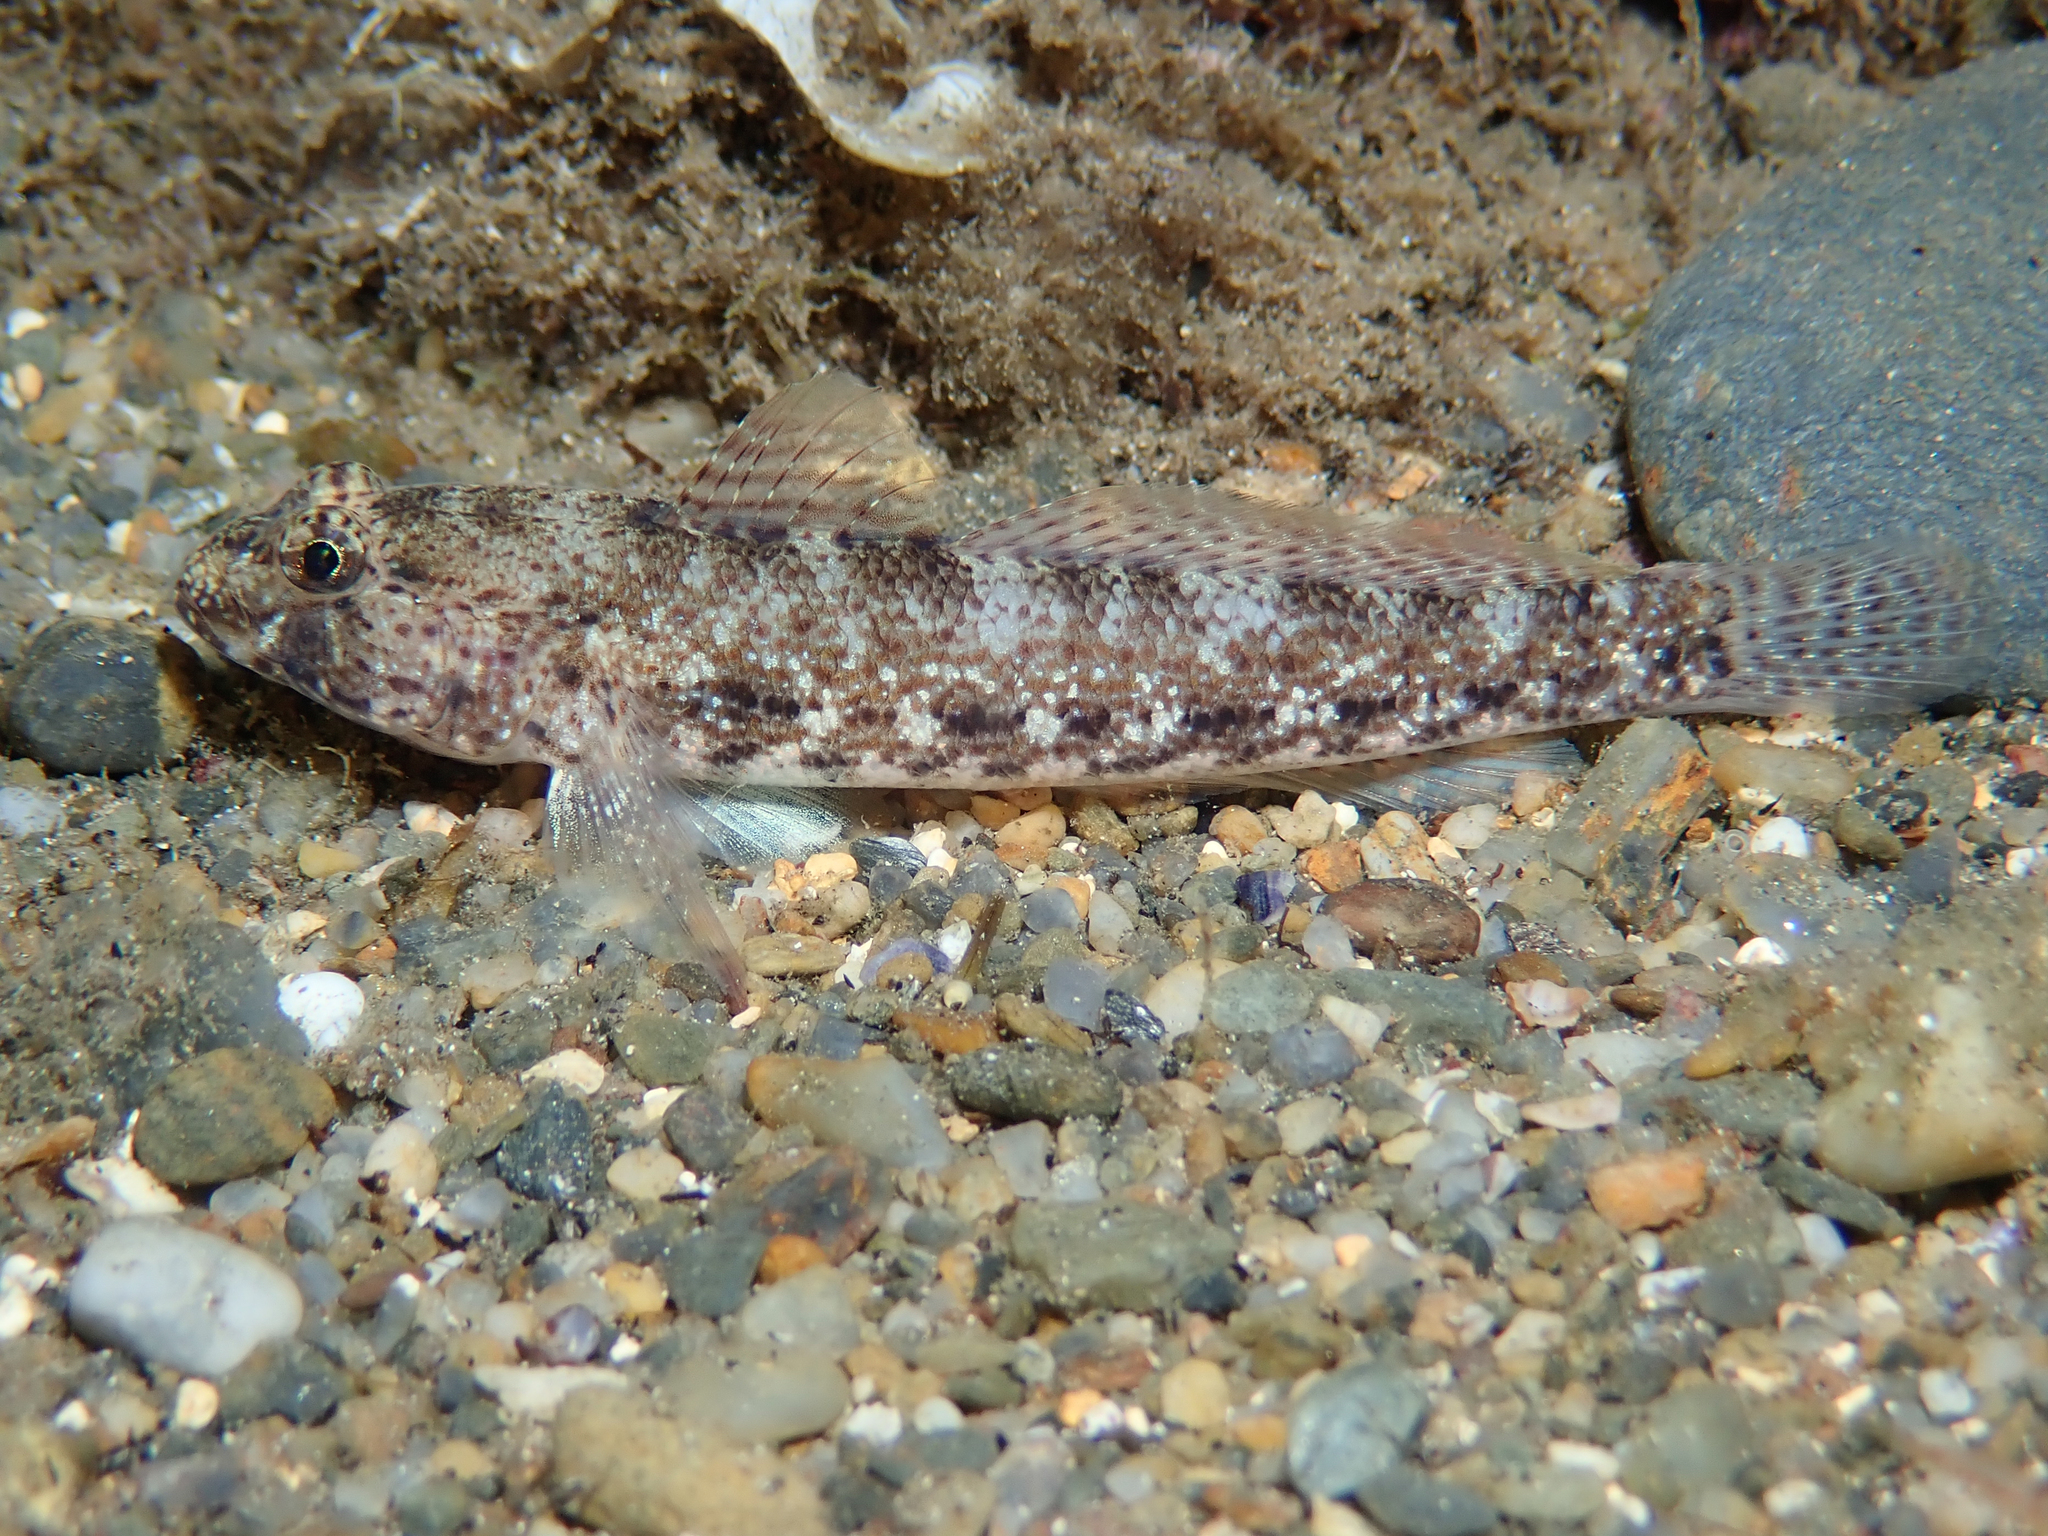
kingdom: Animalia
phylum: Chordata
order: Perciformes
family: Gobiidae
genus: Gobius
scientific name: Gobius incognitus
